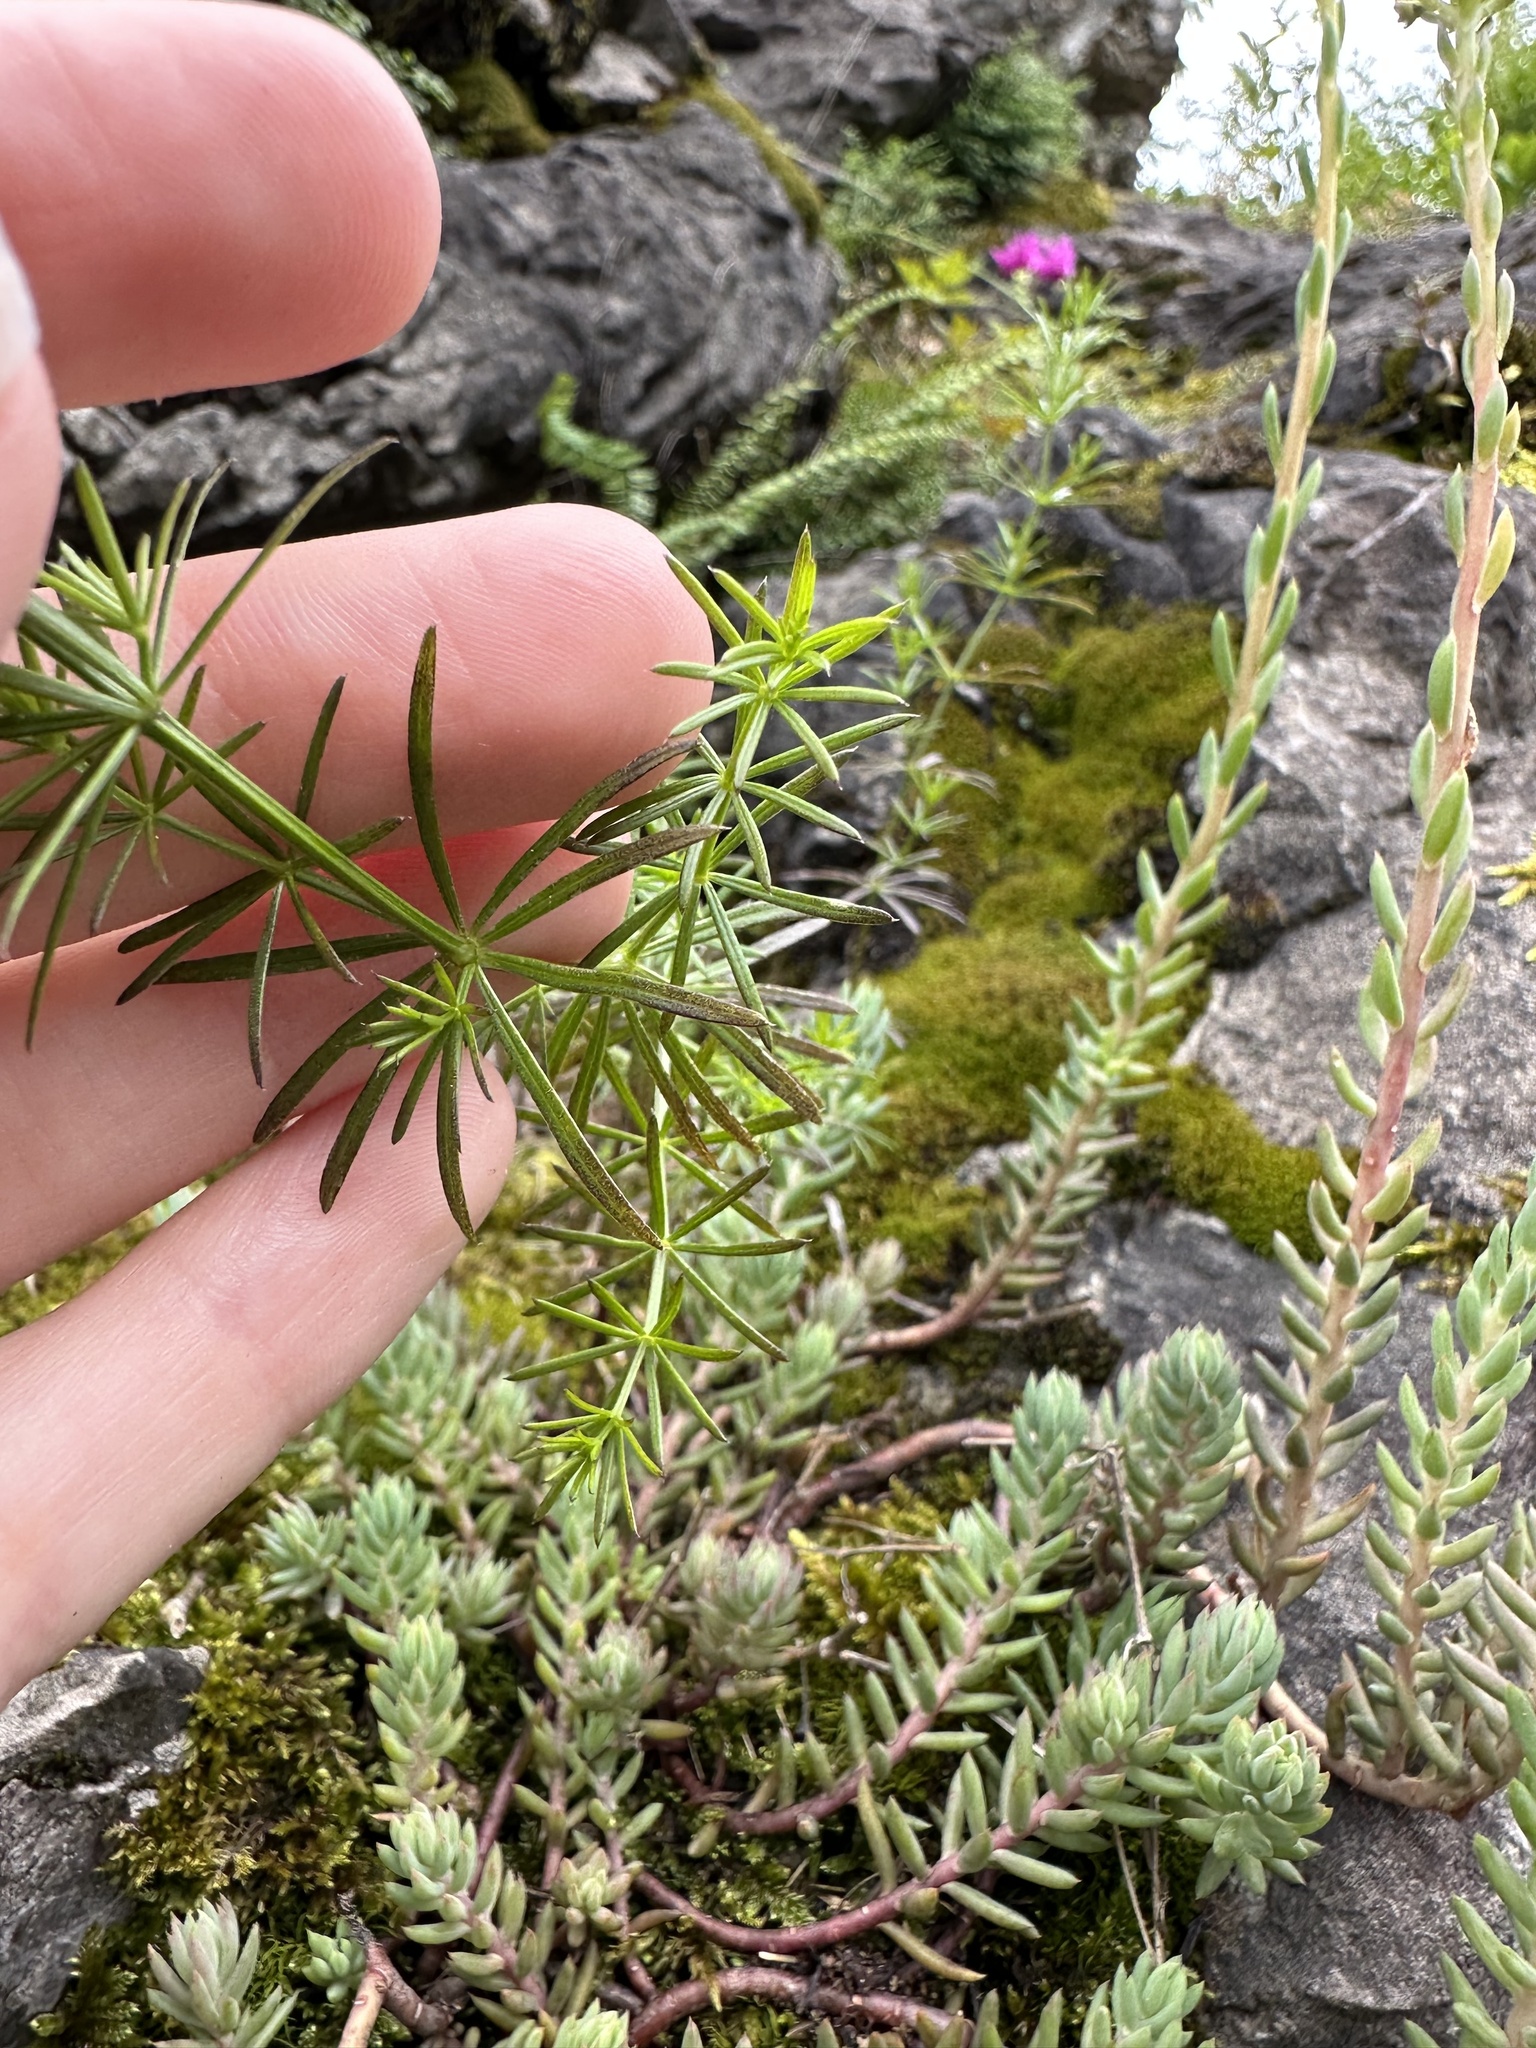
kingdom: Plantae
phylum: Tracheophyta
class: Magnoliopsida
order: Gentianales
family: Rubiaceae
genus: Galium
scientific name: Galium lucidum
